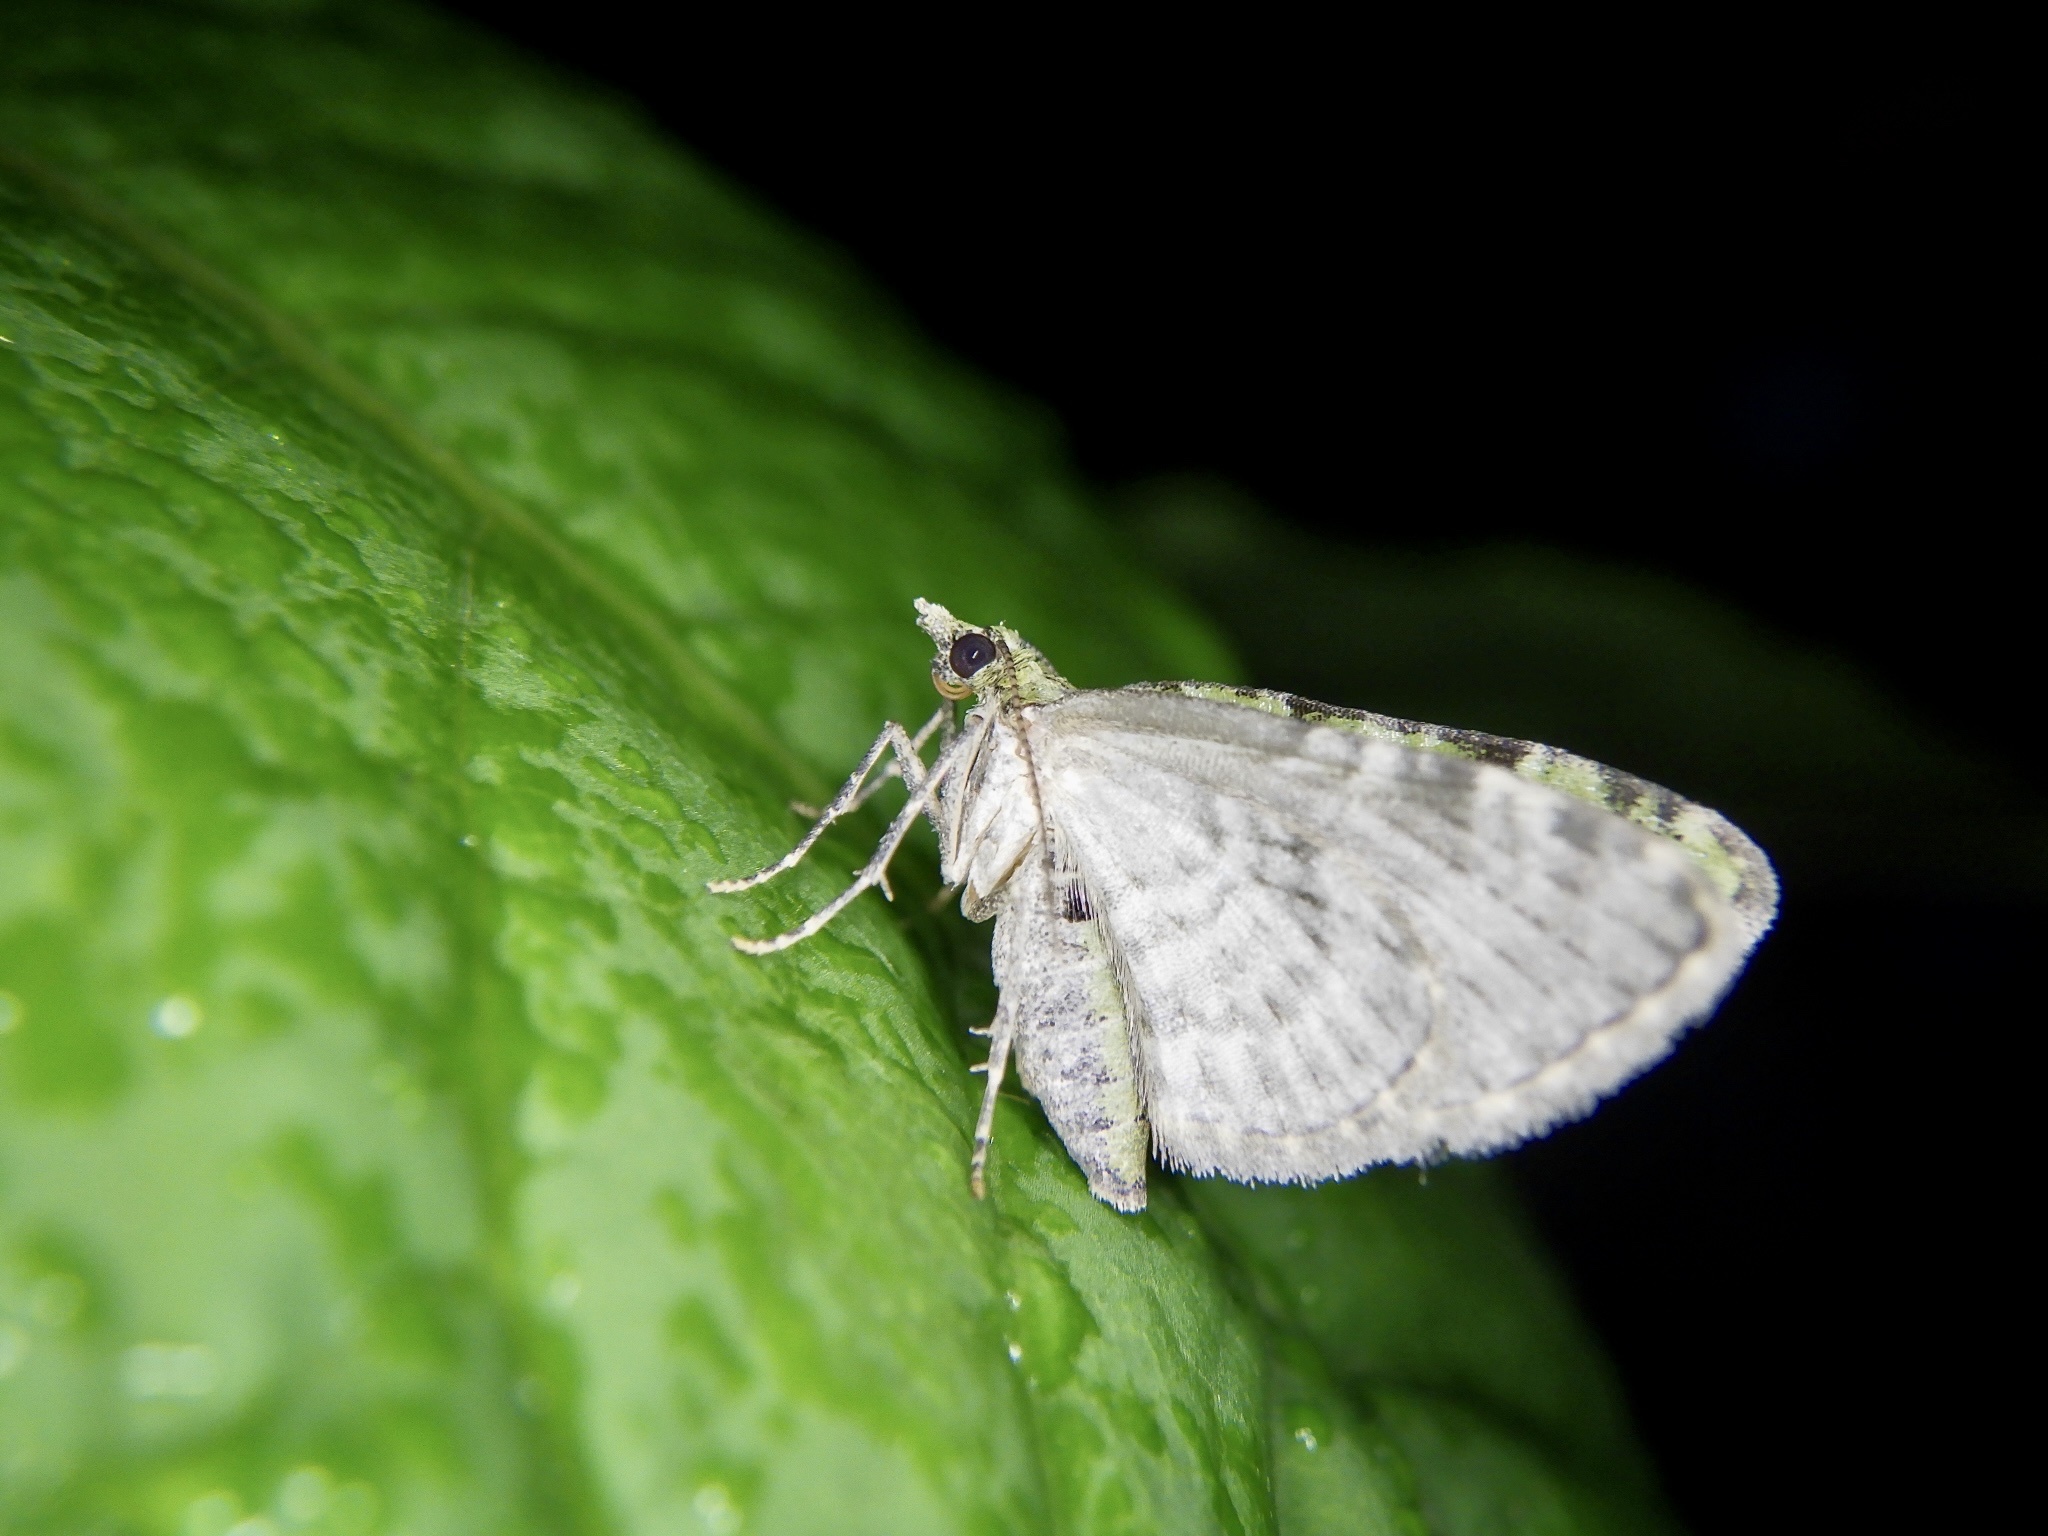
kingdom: Animalia
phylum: Arthropoda
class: Insecta
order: Lepidoptera
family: Geometridae
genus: Chloroclystis
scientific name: Chloroclystis v-ata
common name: V-pug
